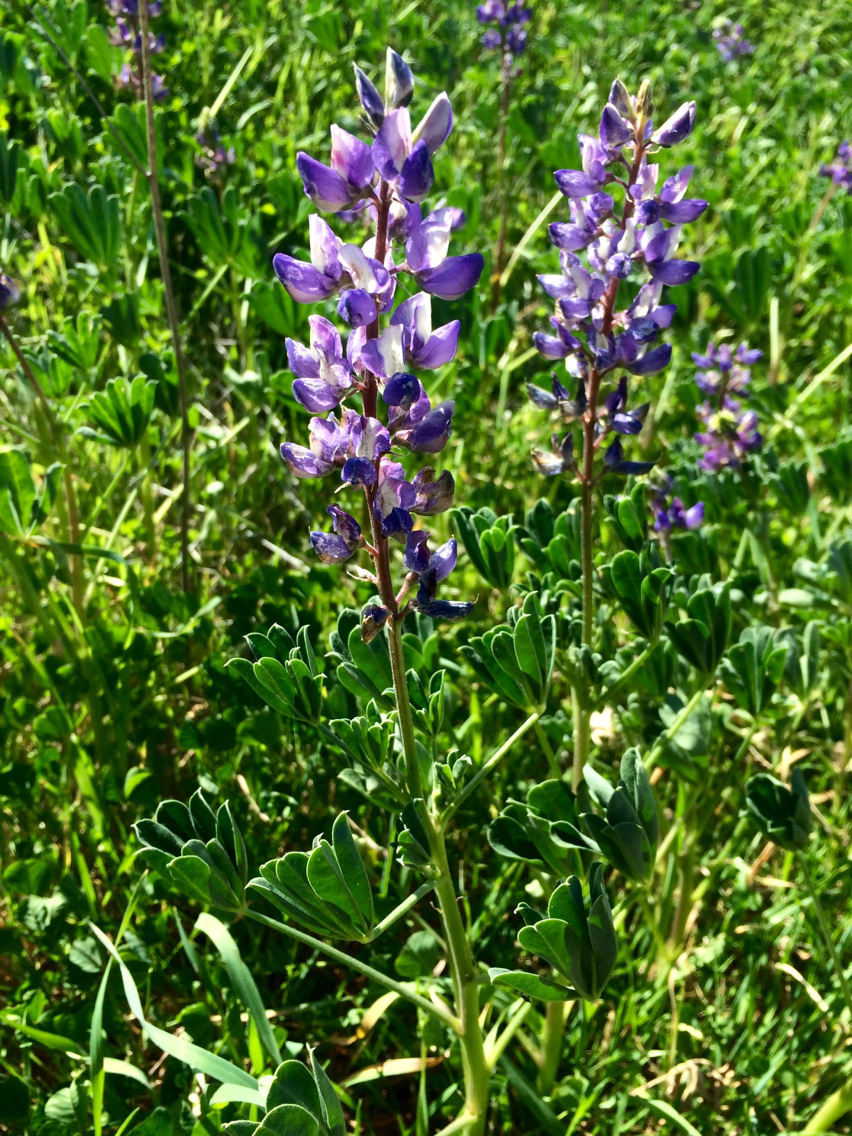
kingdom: Plantae
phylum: Tracheophyta
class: Magnoliopsida
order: Fabales
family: Fabaceae
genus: Lupinus
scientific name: Lupinus succulentus
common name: Arroyo lupine
